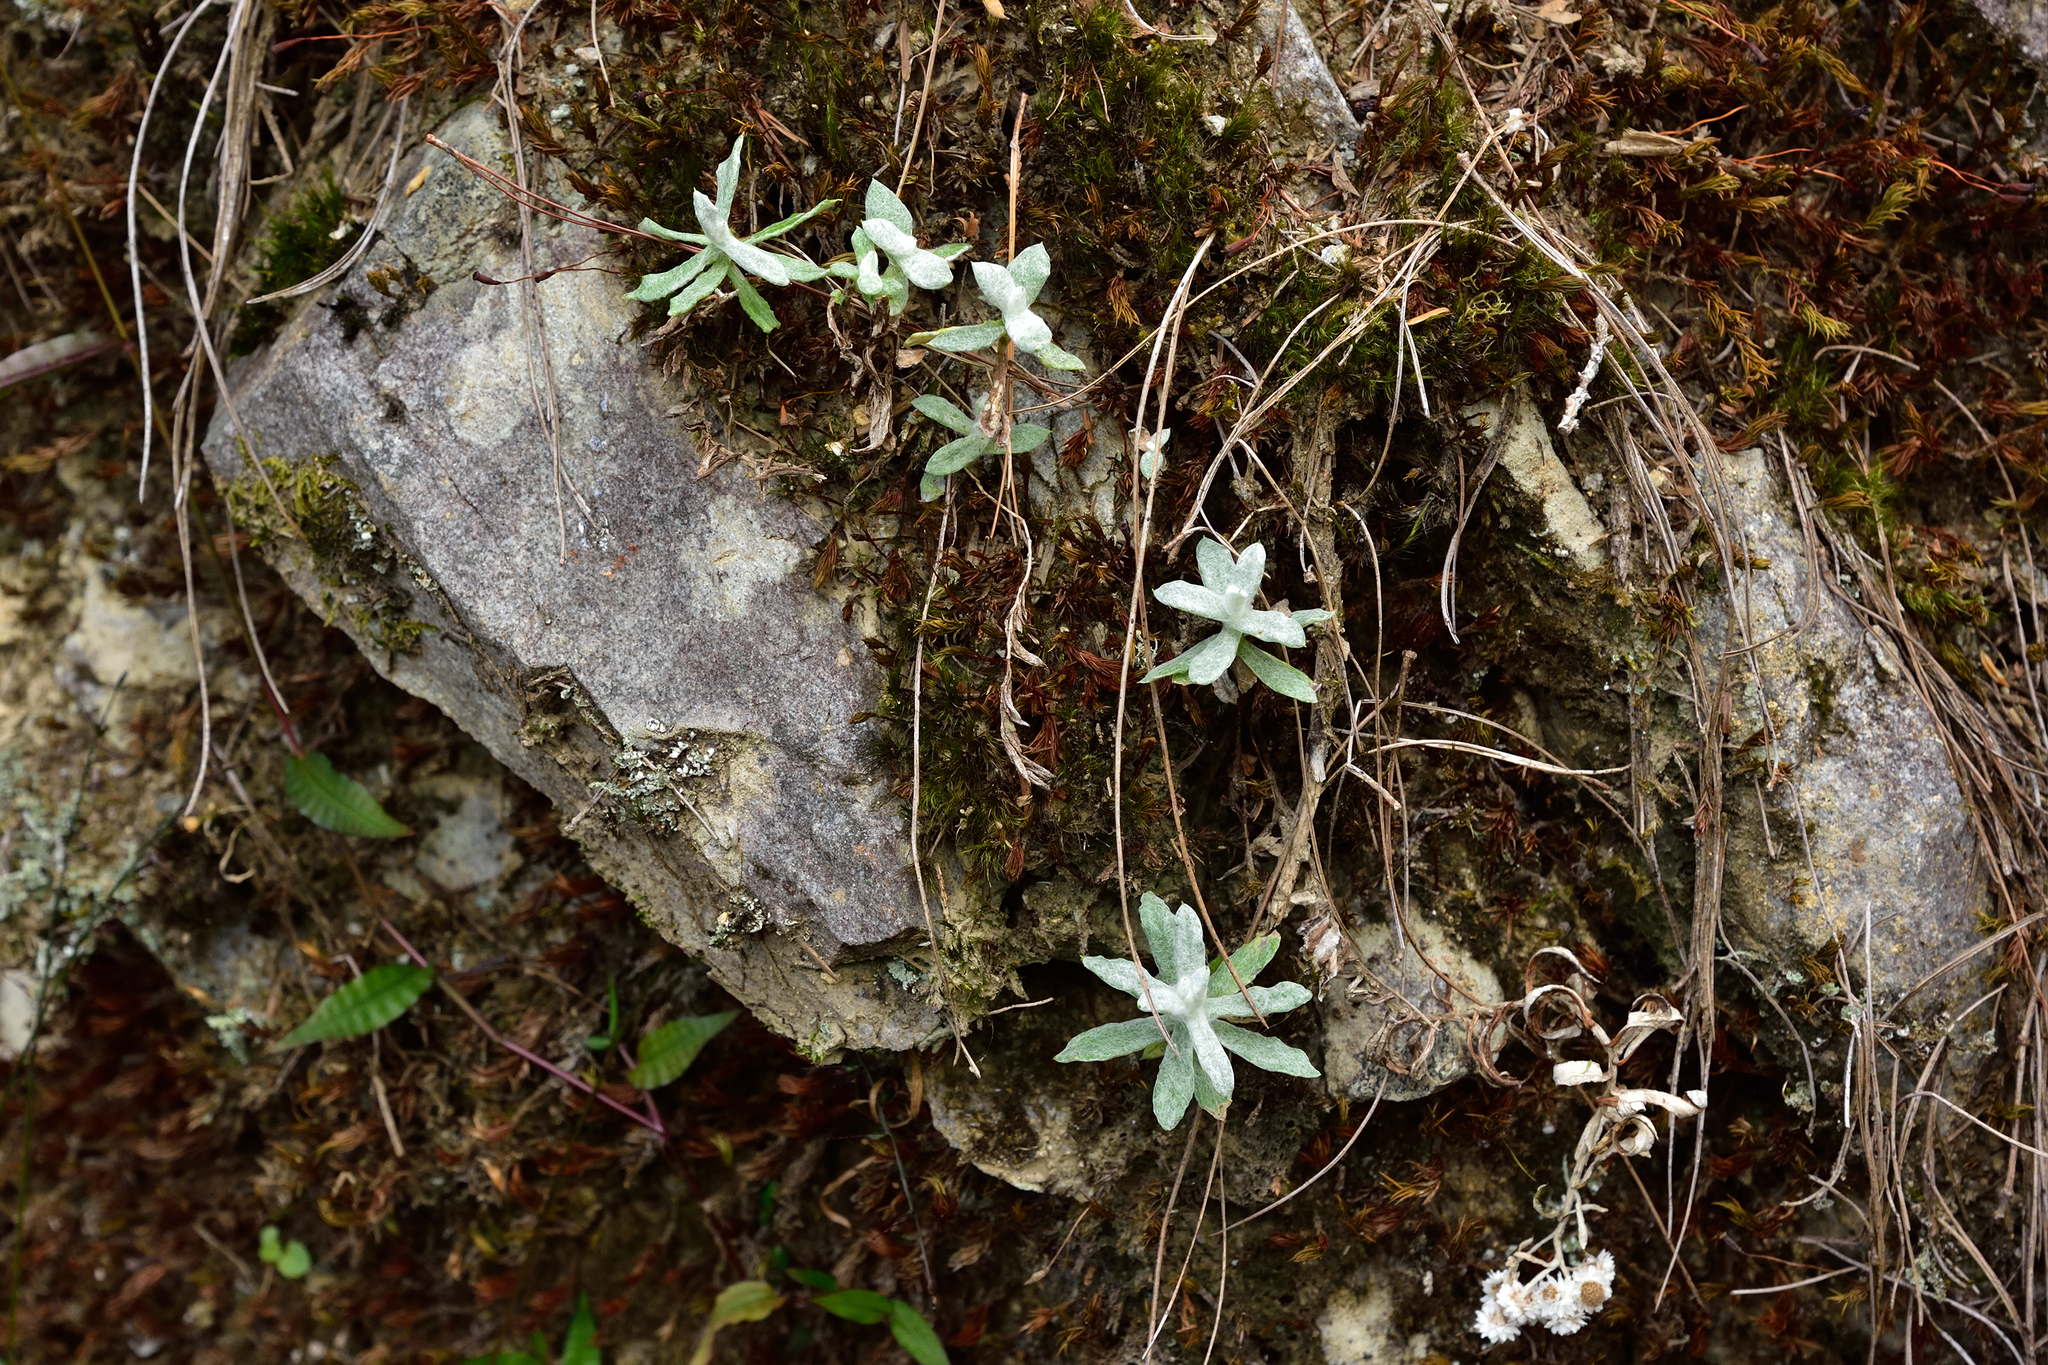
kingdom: Plantae
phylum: Tracheophyta
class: Magnoliopsida
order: Asterales
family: Asteraceae
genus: Anaphalis
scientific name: Anaphalis morrisonicola
